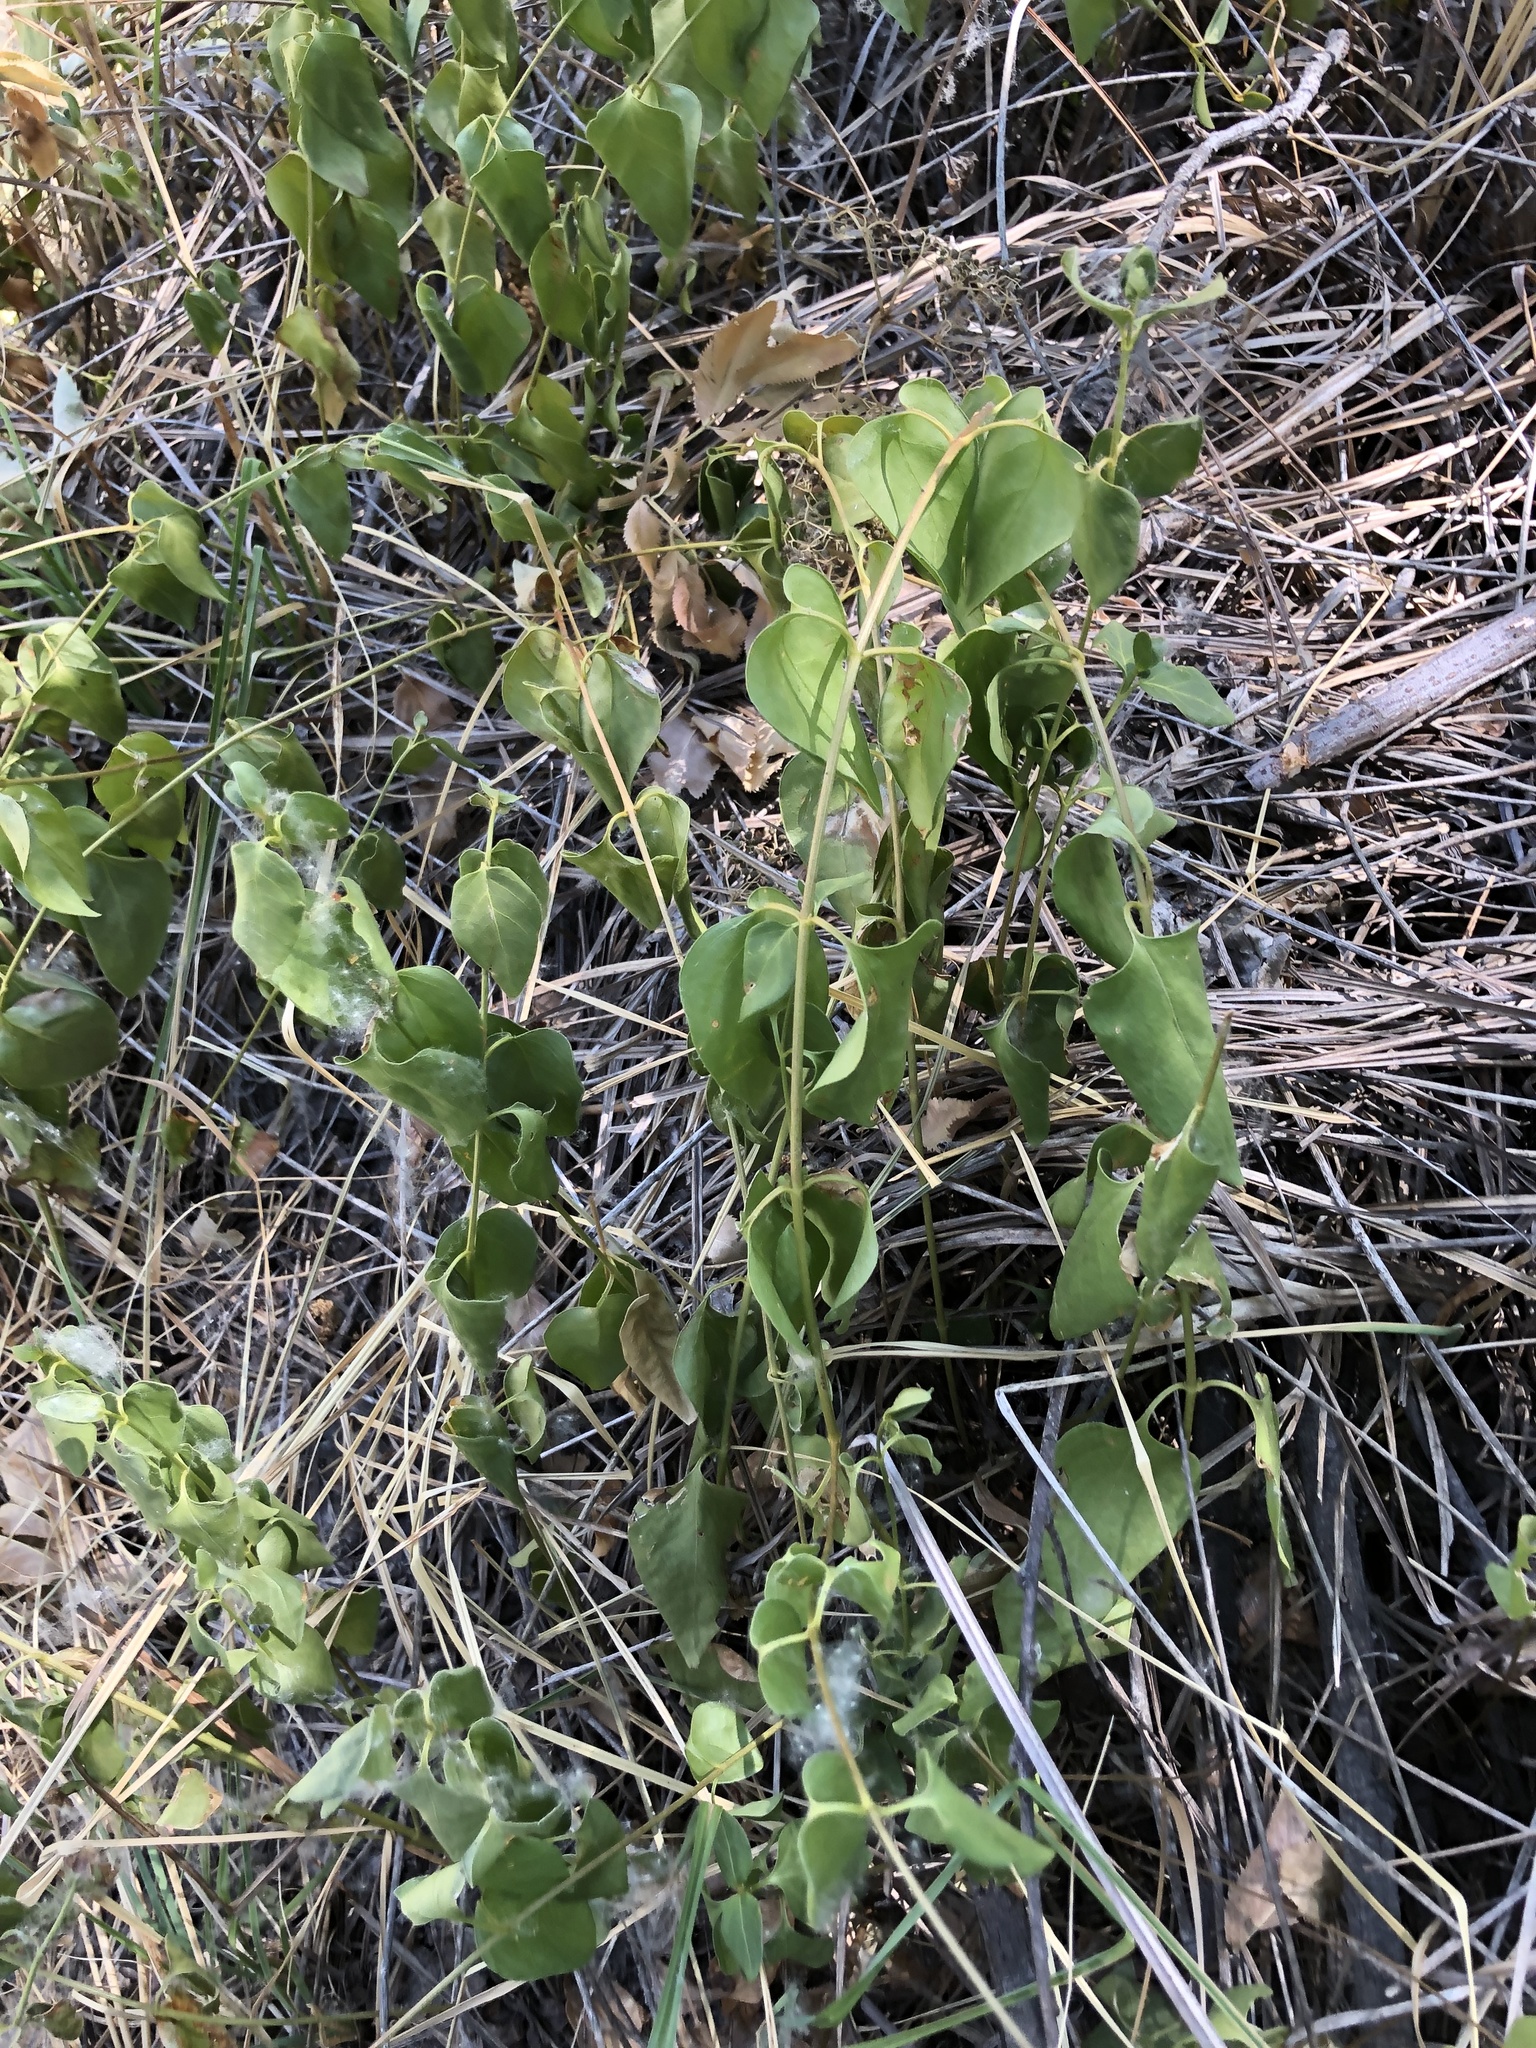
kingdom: Plantae
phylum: Tracheophyta
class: Magnoliopsida
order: Gentianales
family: Apocynaceae
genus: Vinca
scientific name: Vinca major
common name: Greater periwinkle
